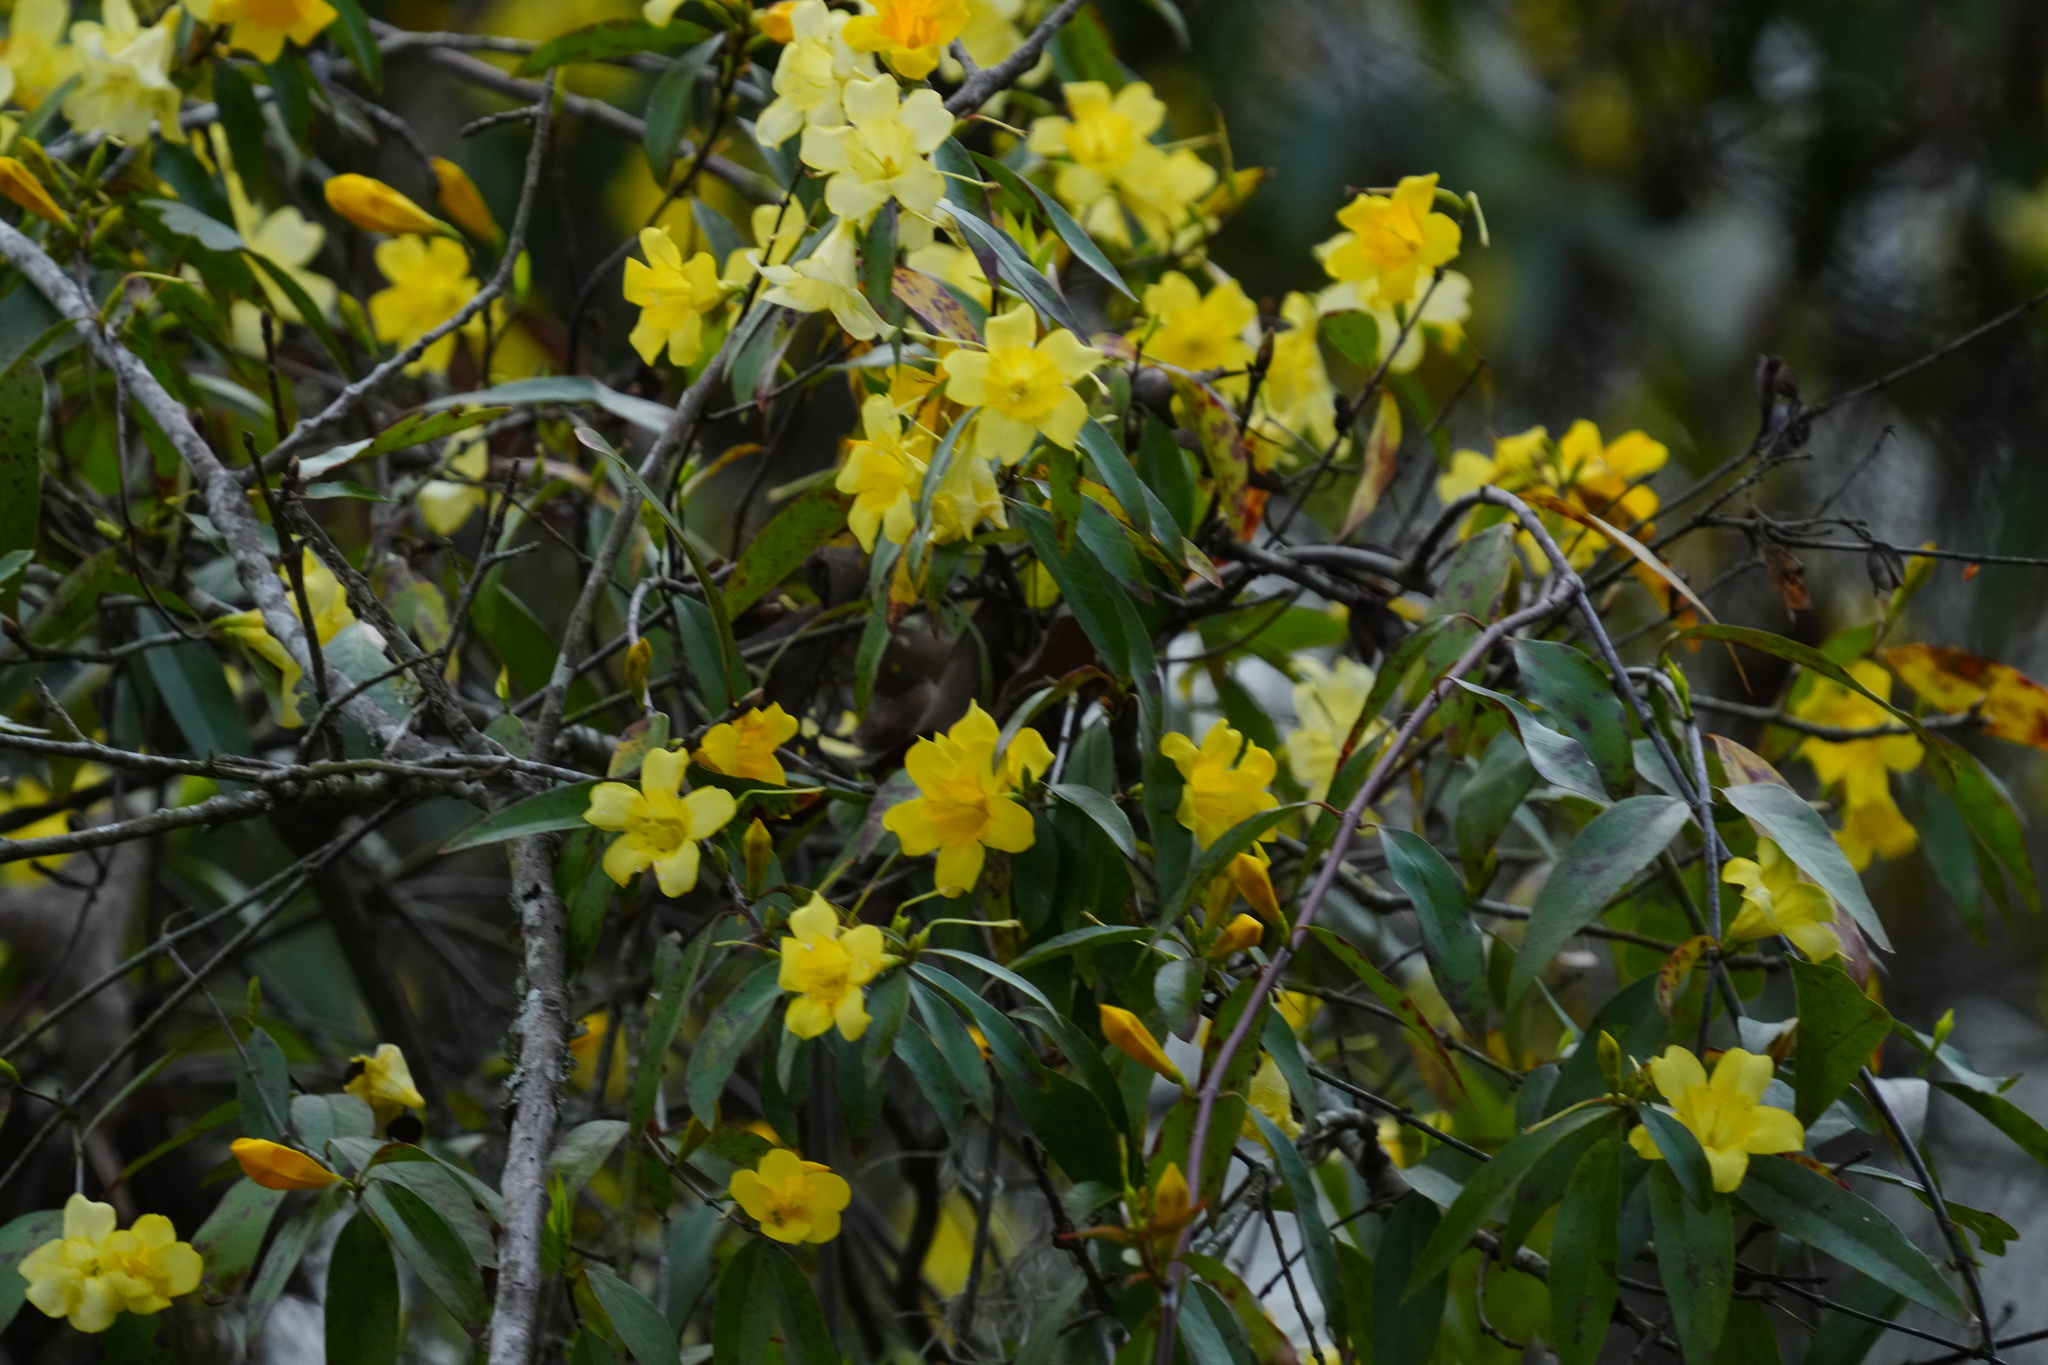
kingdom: Plantae
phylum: Tracheophyta
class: Magnoliopsida
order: Gentianales
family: Gelsemiaceae
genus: Gelsemium
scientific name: Gelsemium sempervirens
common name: Carolina-jasmine
